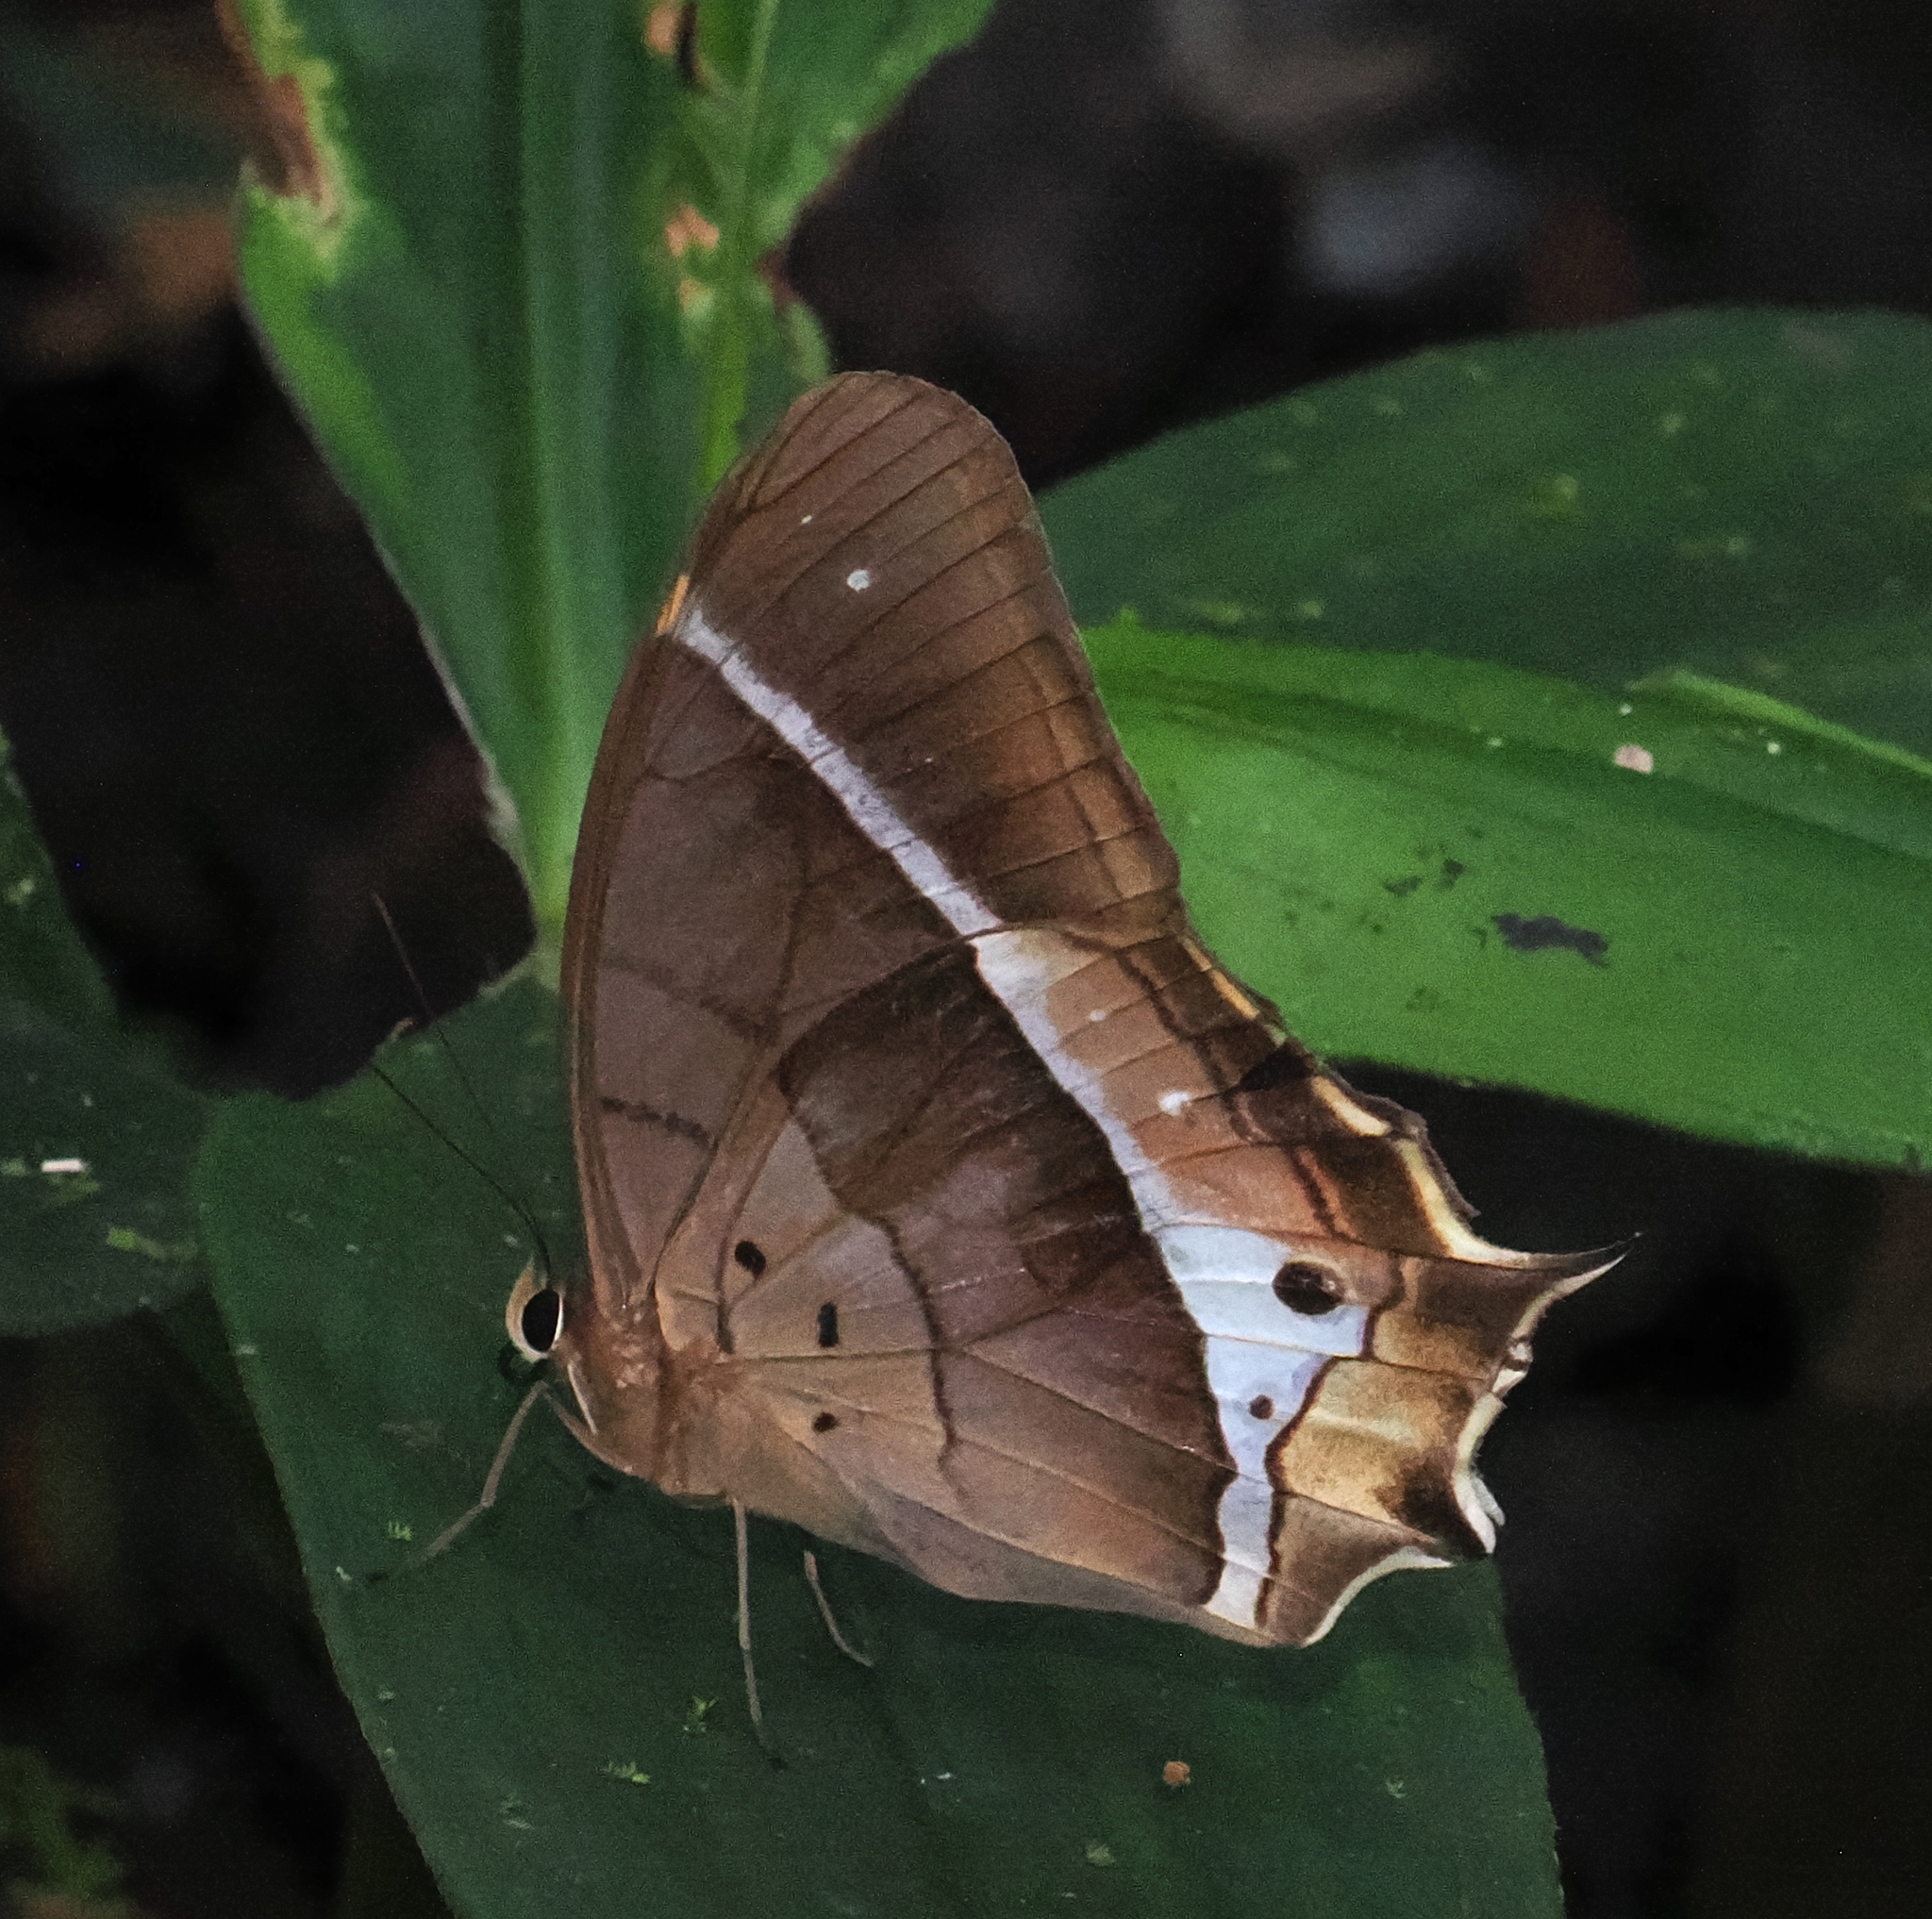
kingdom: Animalia
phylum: Arthropoda
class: Insecta
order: Lepidoptera
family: Nymphalidae
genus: Antirrhea
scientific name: Antirrhea philaretes
